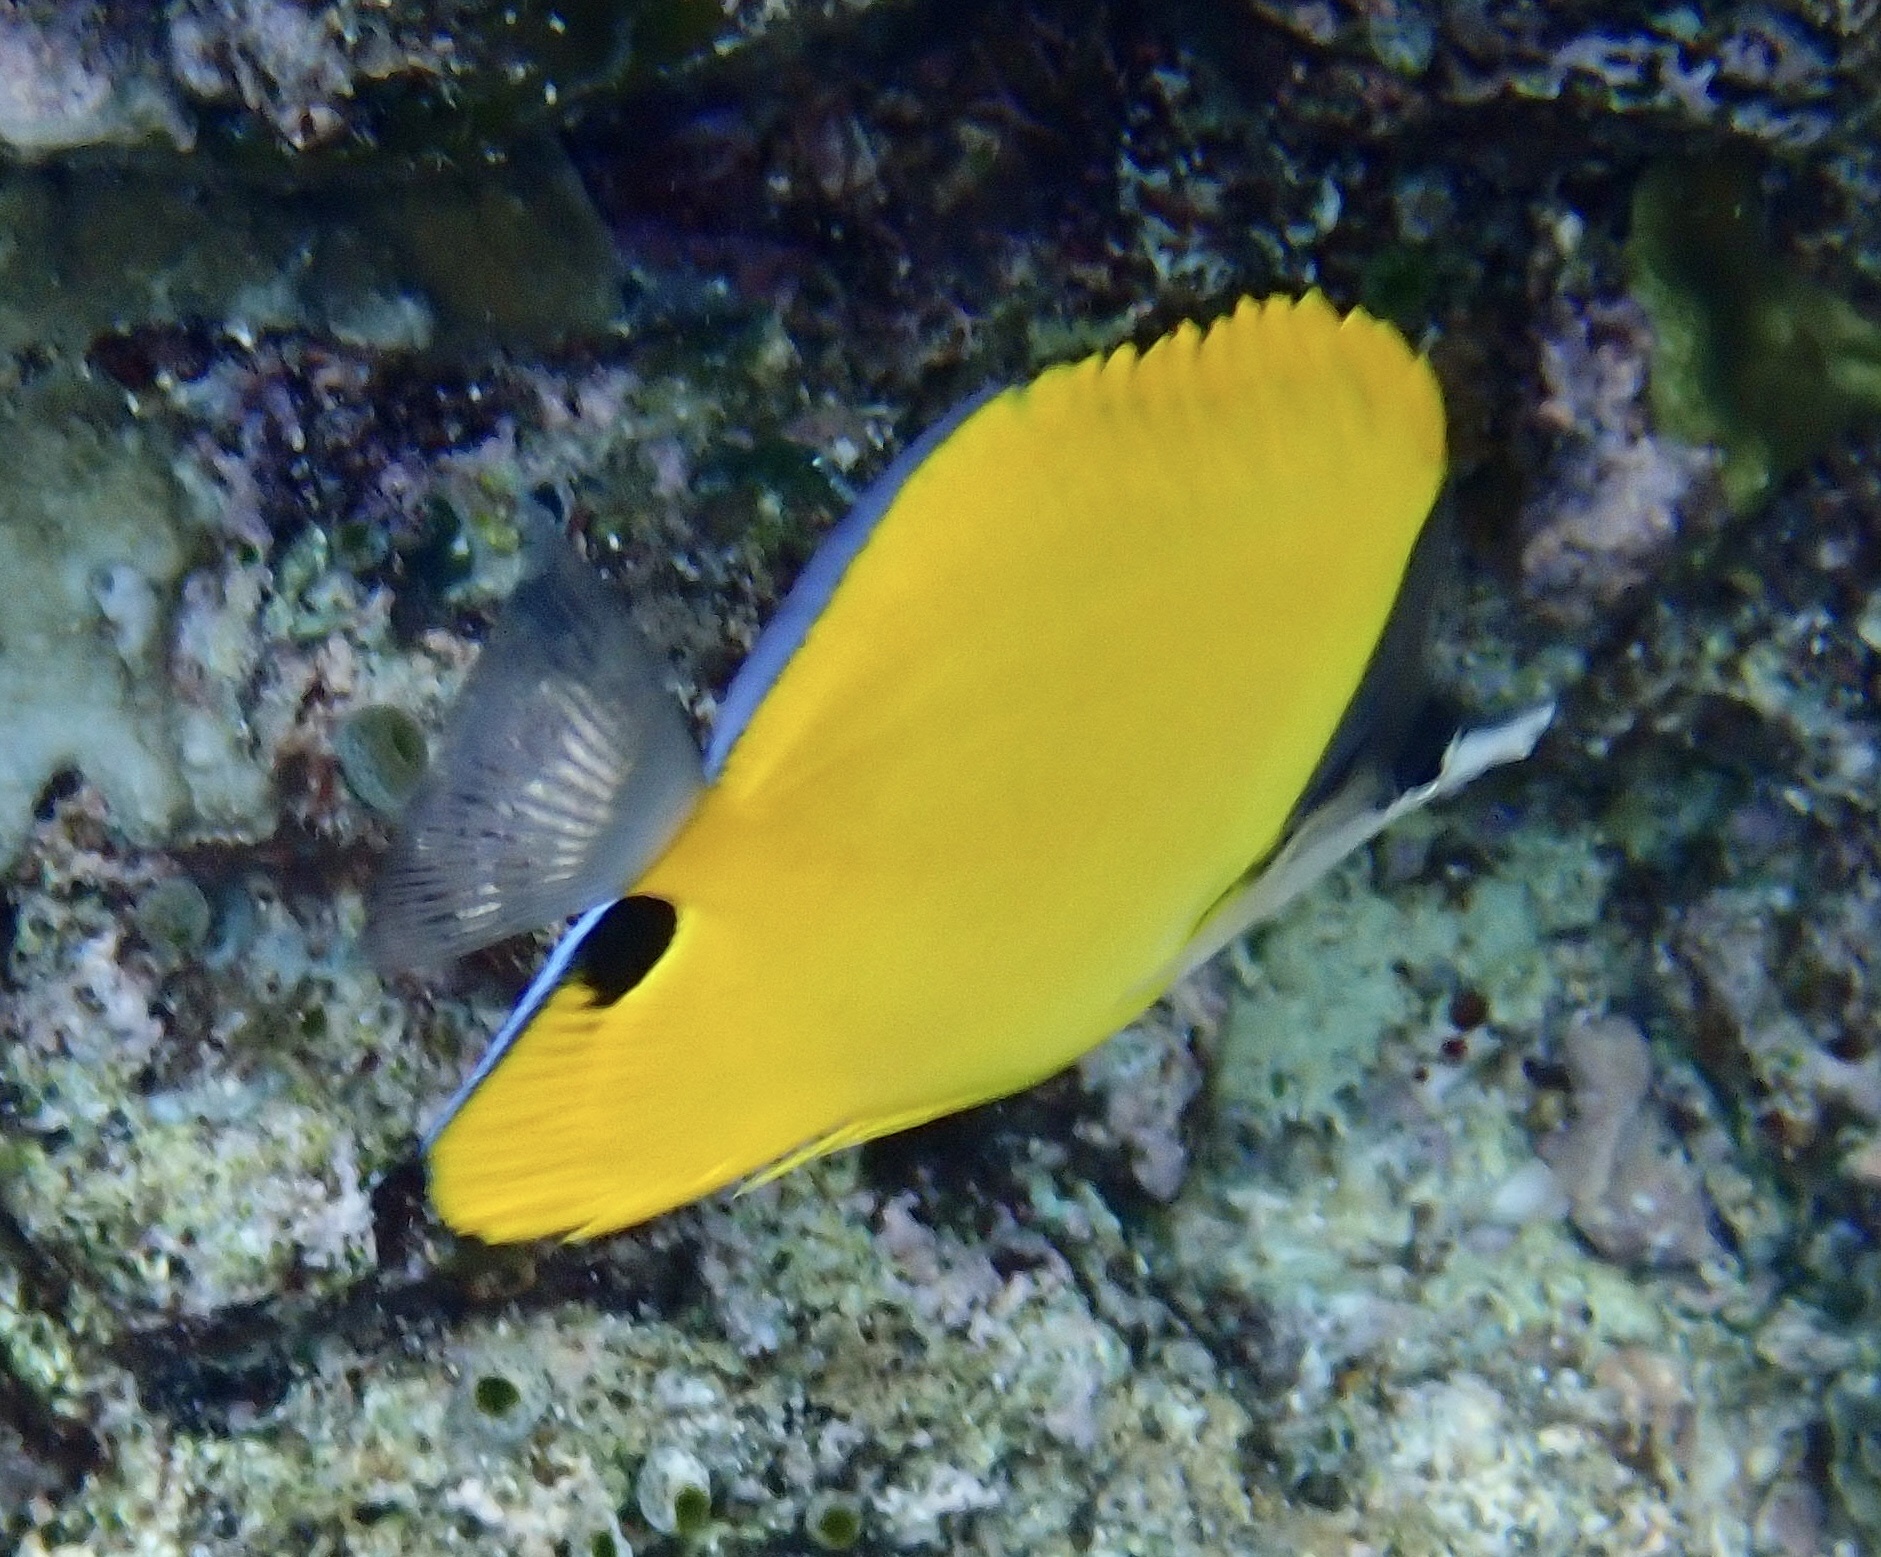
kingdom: Animalia
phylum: Chordata
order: Perciformes
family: Chaetodontidae
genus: Forcipiger
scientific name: Forcipiger flavissimus
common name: Forcepsfish
